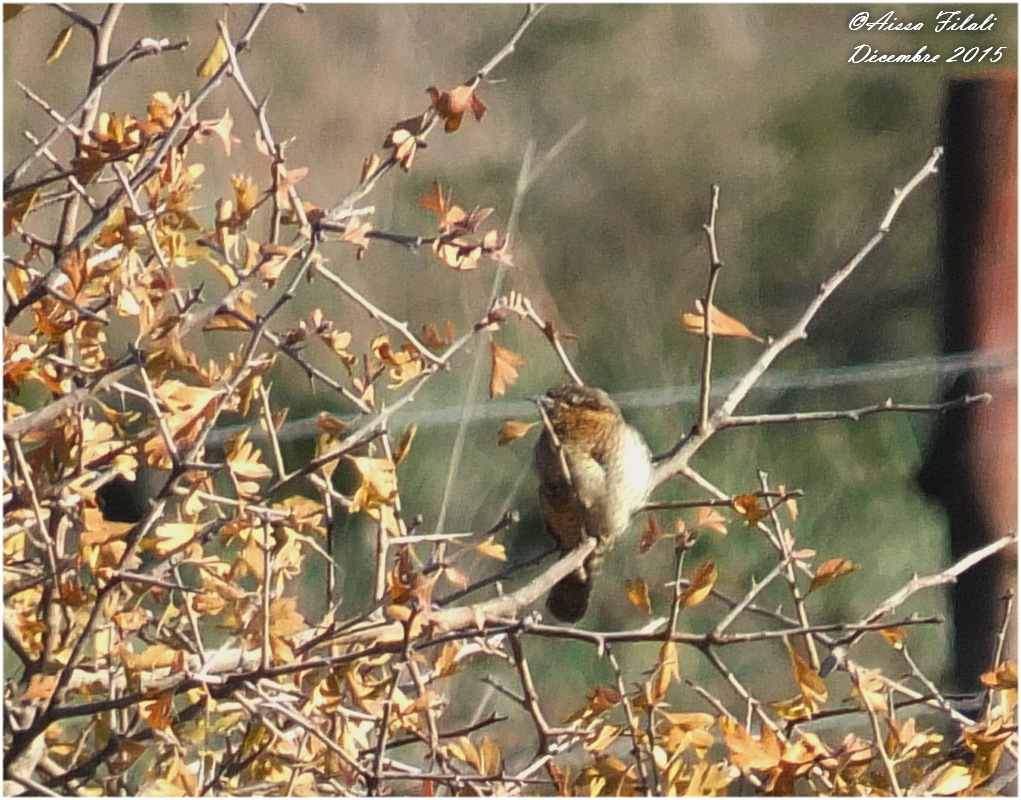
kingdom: Animalia
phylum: Chordata
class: Aves
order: Piciformes
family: Picidae
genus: Jynx
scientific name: Jynx torquilla
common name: Eurasian wryneck
